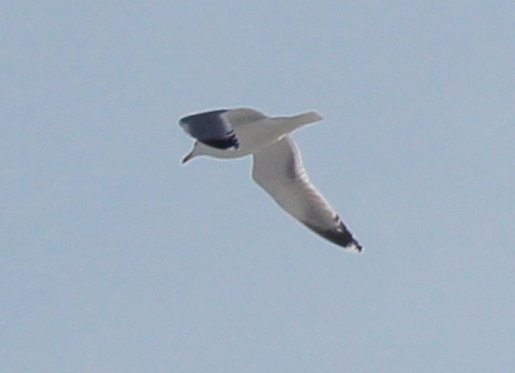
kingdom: Animalia
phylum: Chordata
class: Aves
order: Charadriiformes
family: Laridae
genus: Larus
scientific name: Larus vegae
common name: Vega gull
